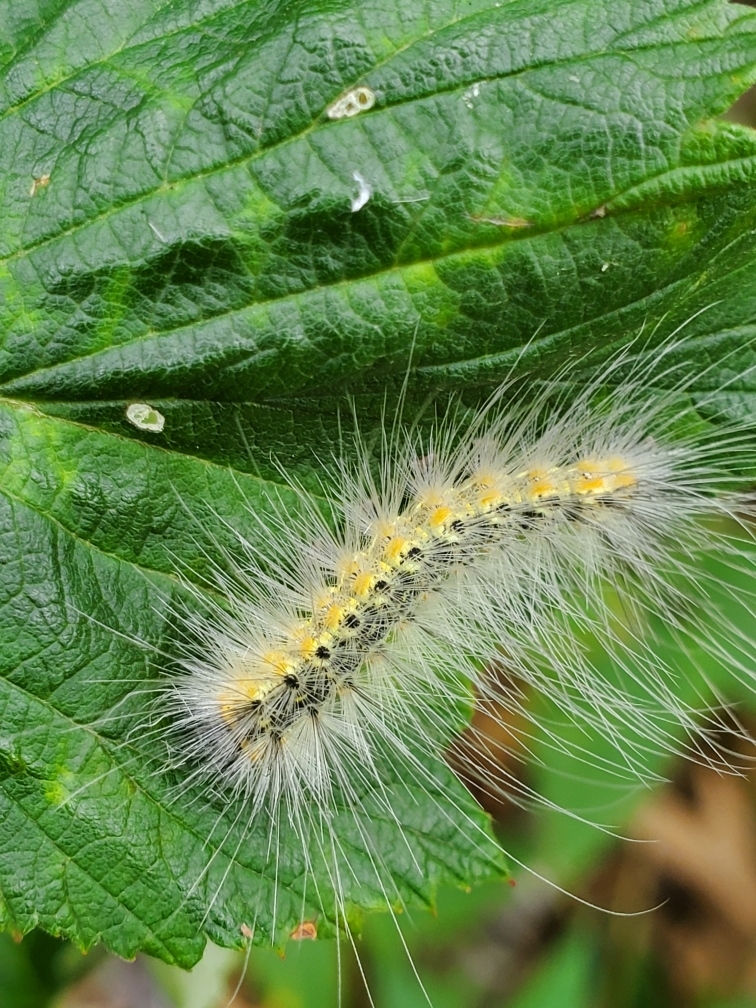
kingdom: Animalia
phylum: Arthropoda
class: Insecta
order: Lepidoptera
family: Erebidae
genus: Hyphantria
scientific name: Hyphantria cunea
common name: American white moth
